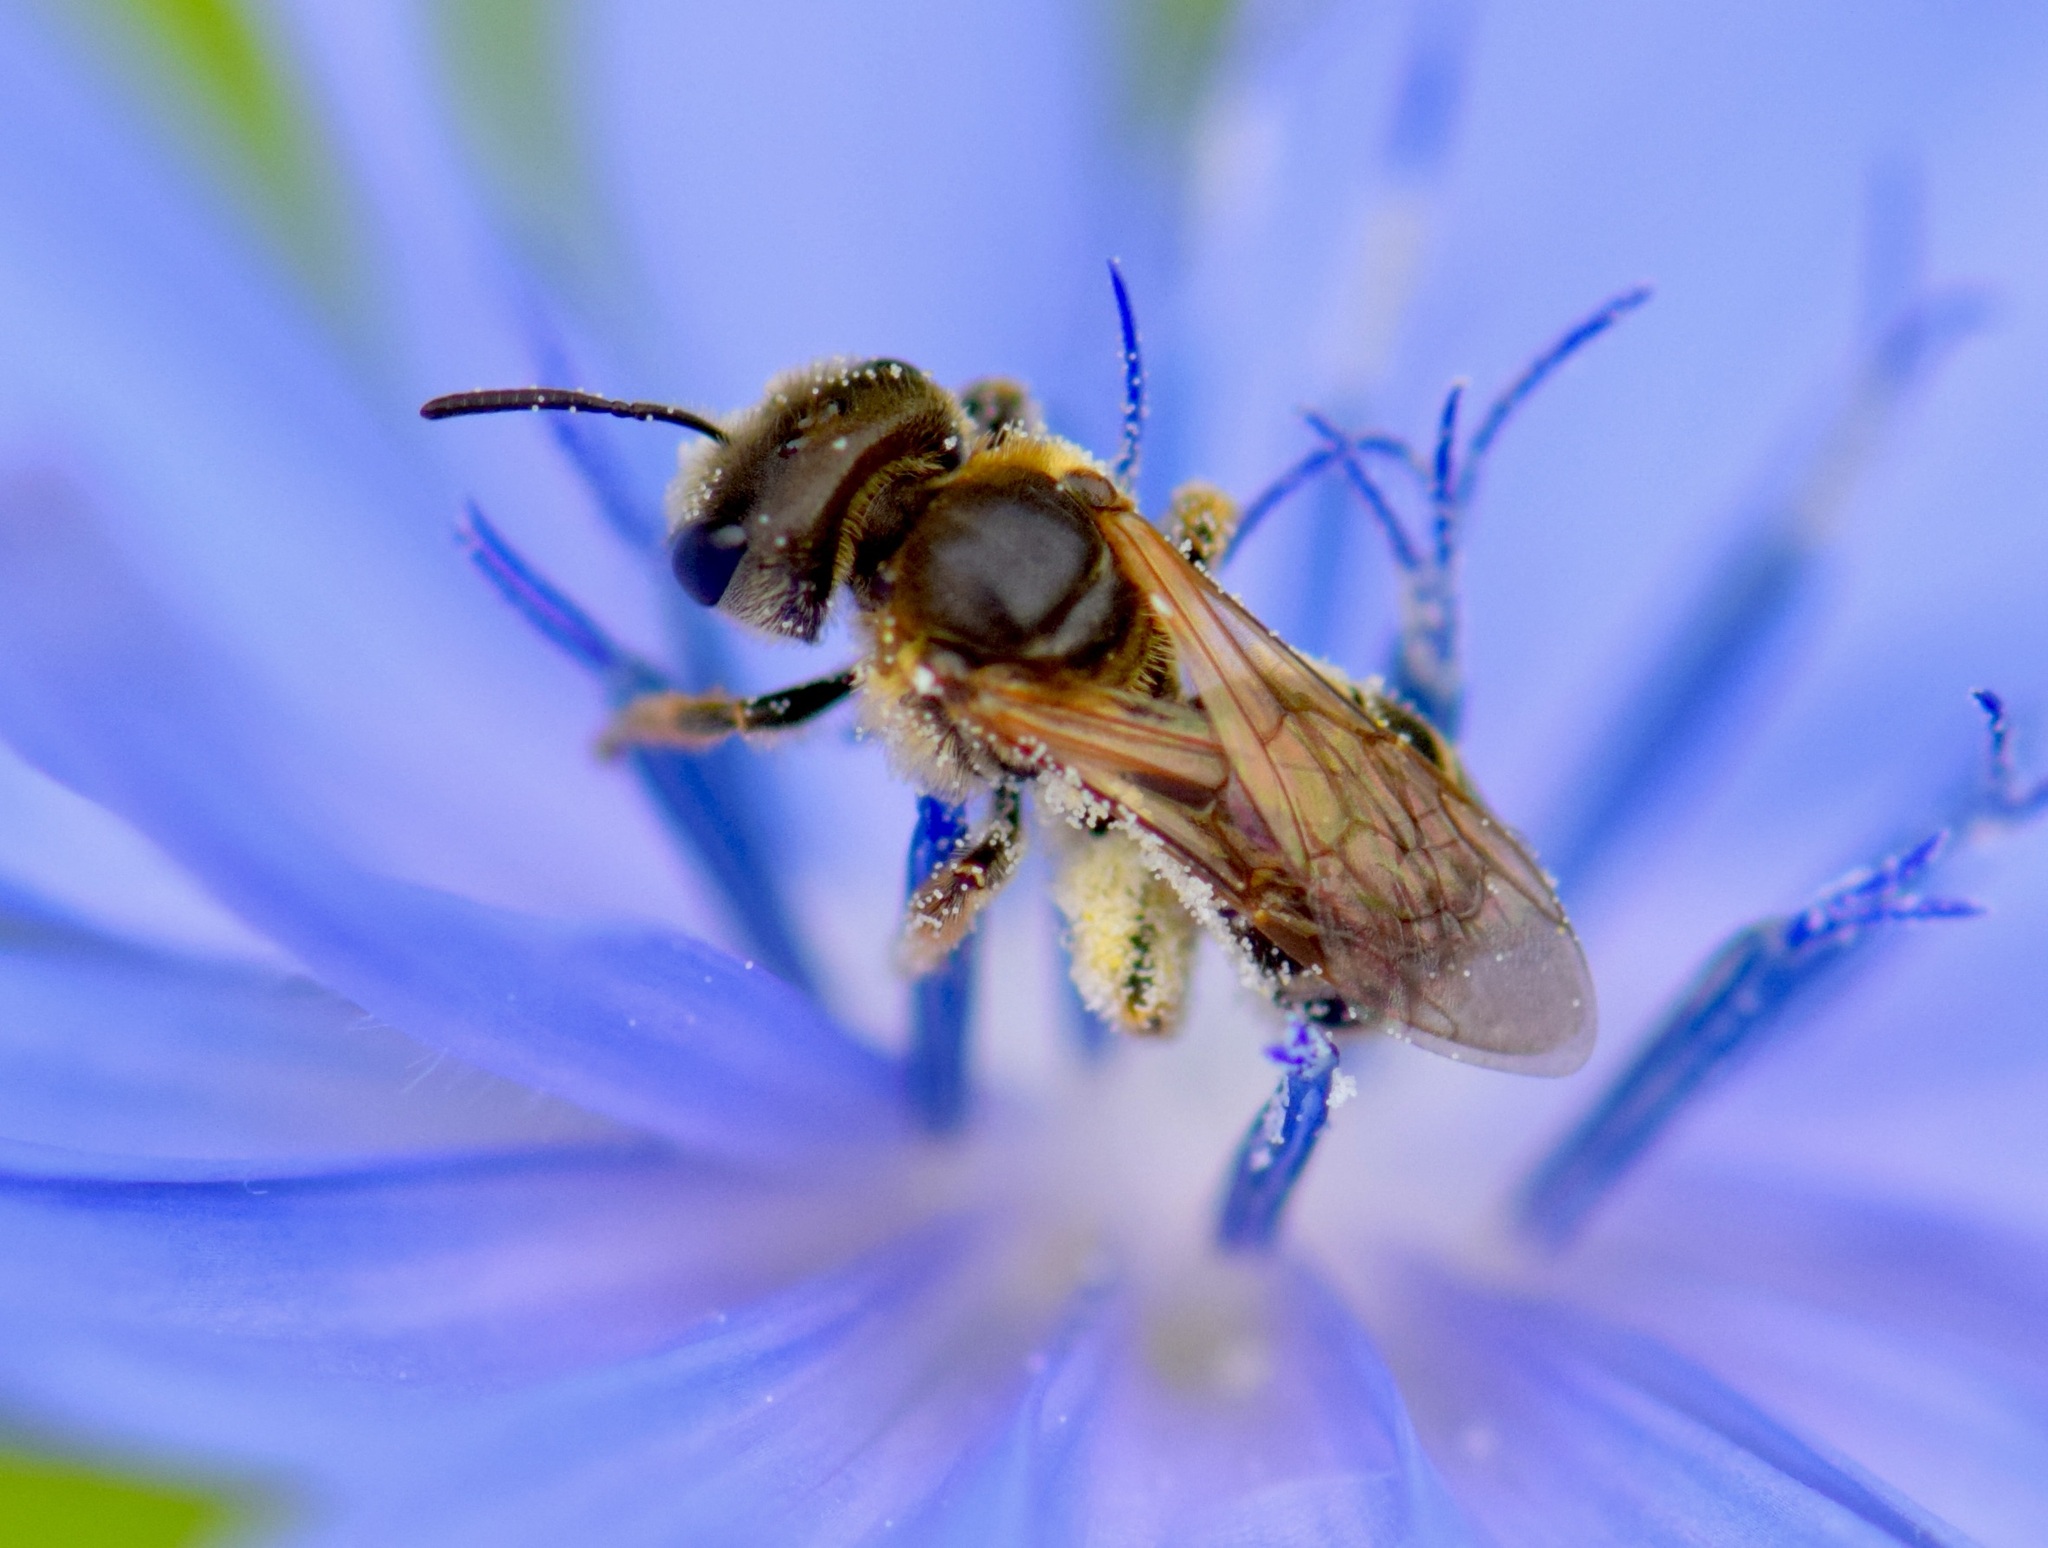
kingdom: Animalia
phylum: Arthropoda
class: Insecta
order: Hymenoptera
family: Halictidae
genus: Halictus
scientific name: Halictus ligatus
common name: Ligated furrow bee
